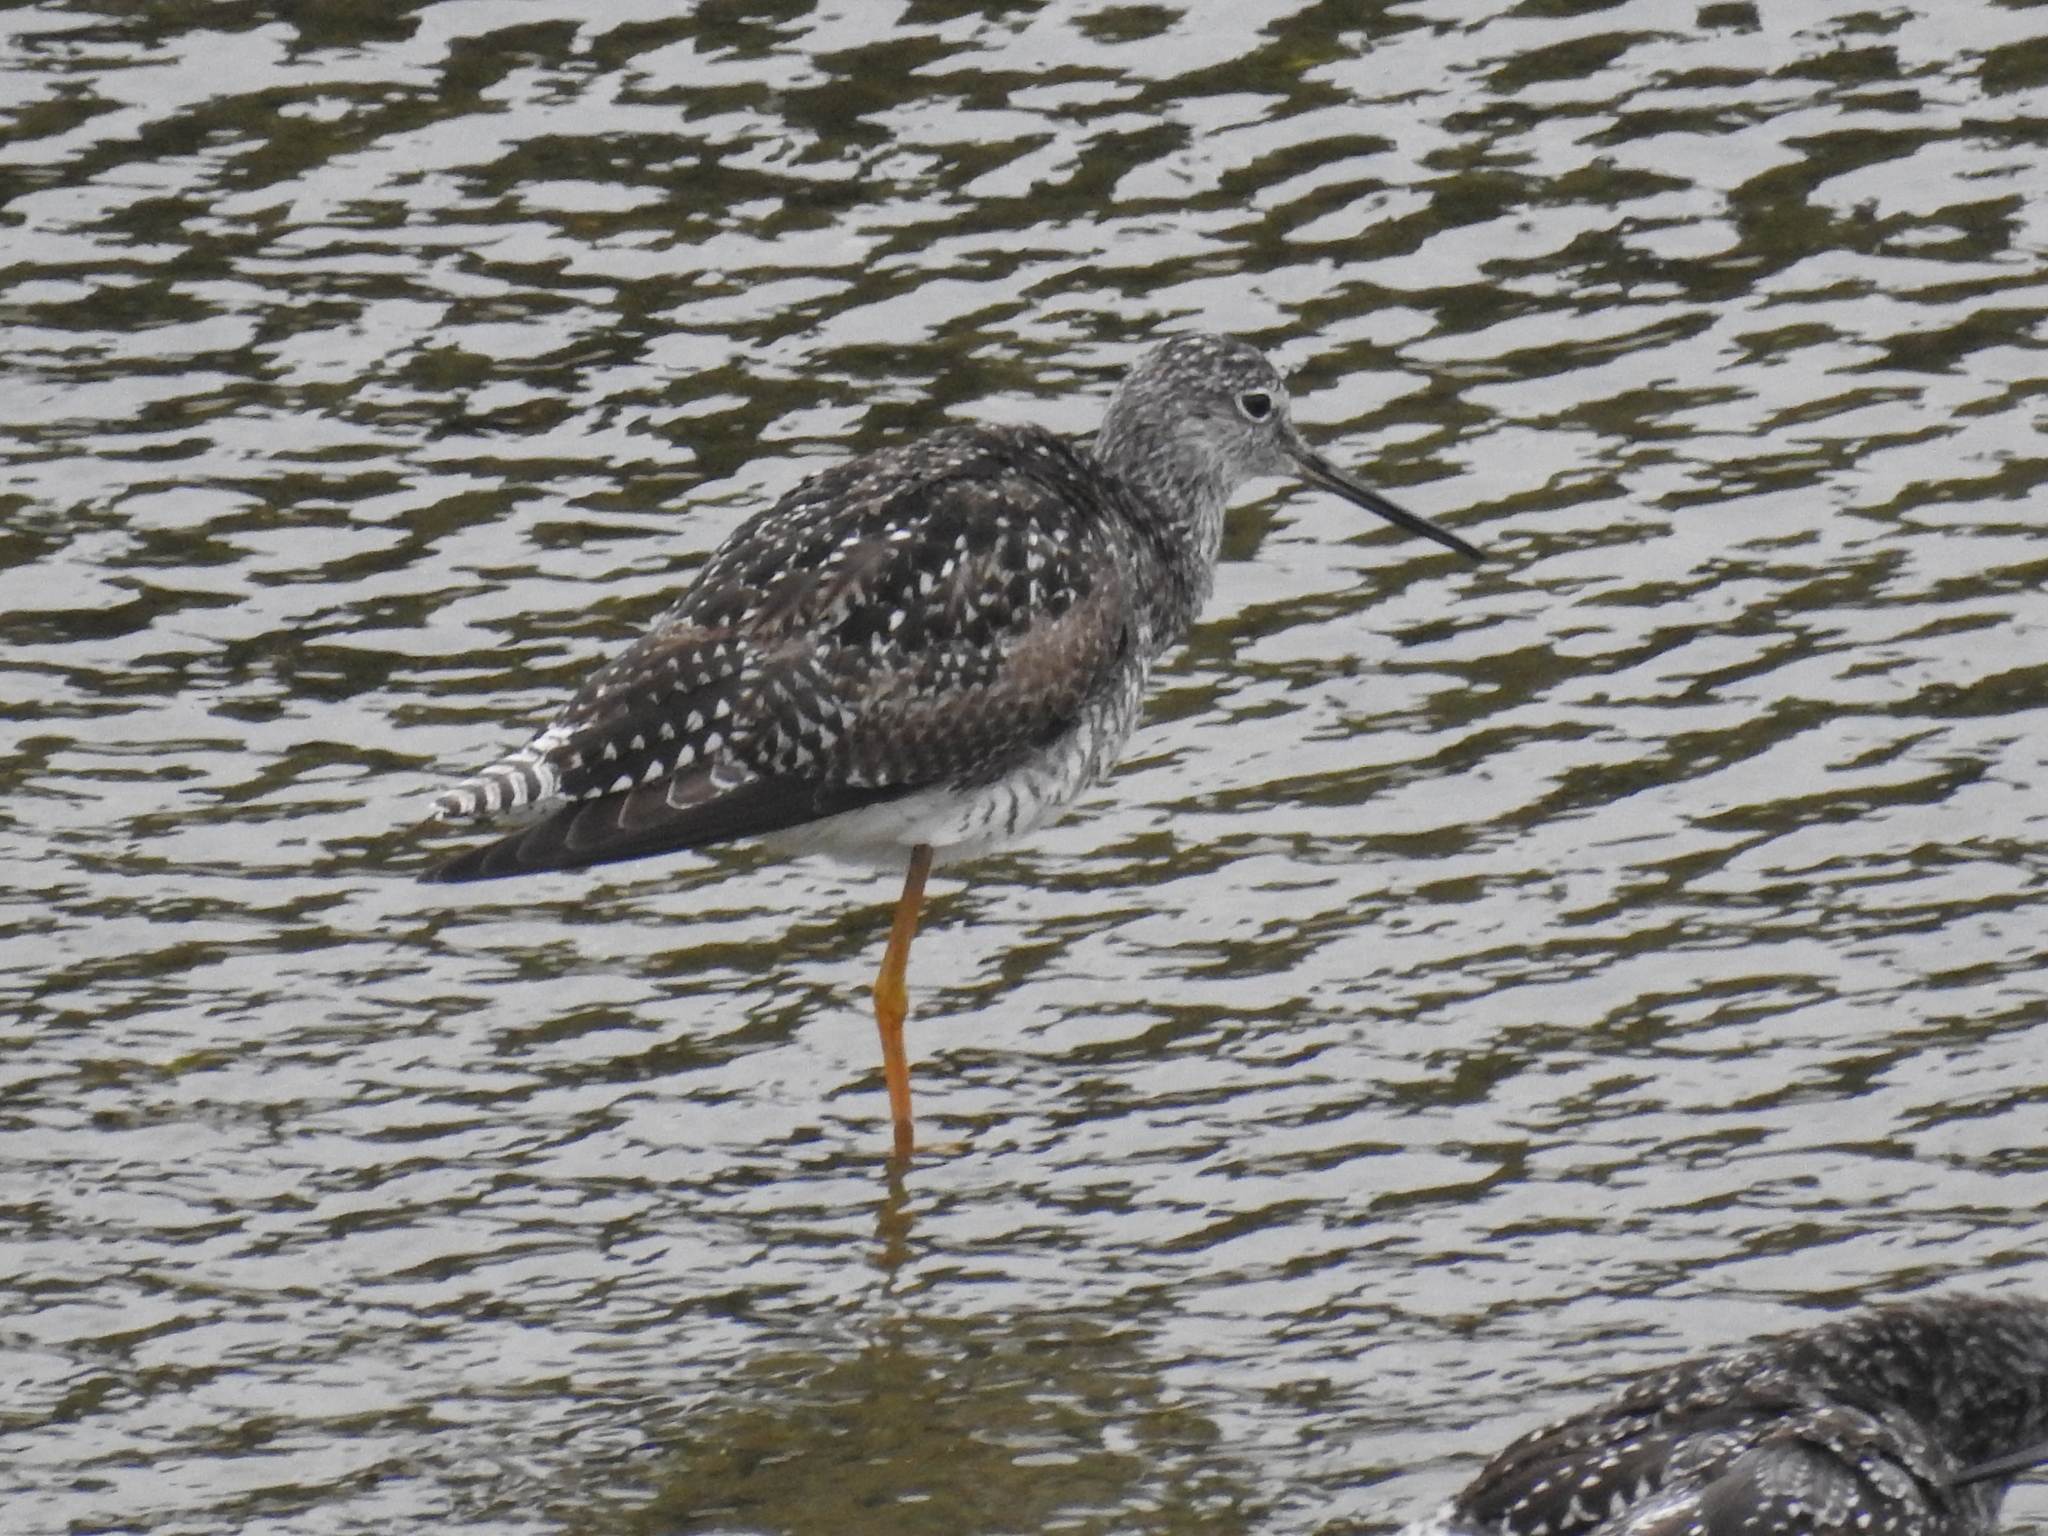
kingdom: Animalia
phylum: Chordata
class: Aves
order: Charadriiformes
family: Scolopacidae
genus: Tringa
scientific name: Tringa melanoleuca
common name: Greater yellowlegs
